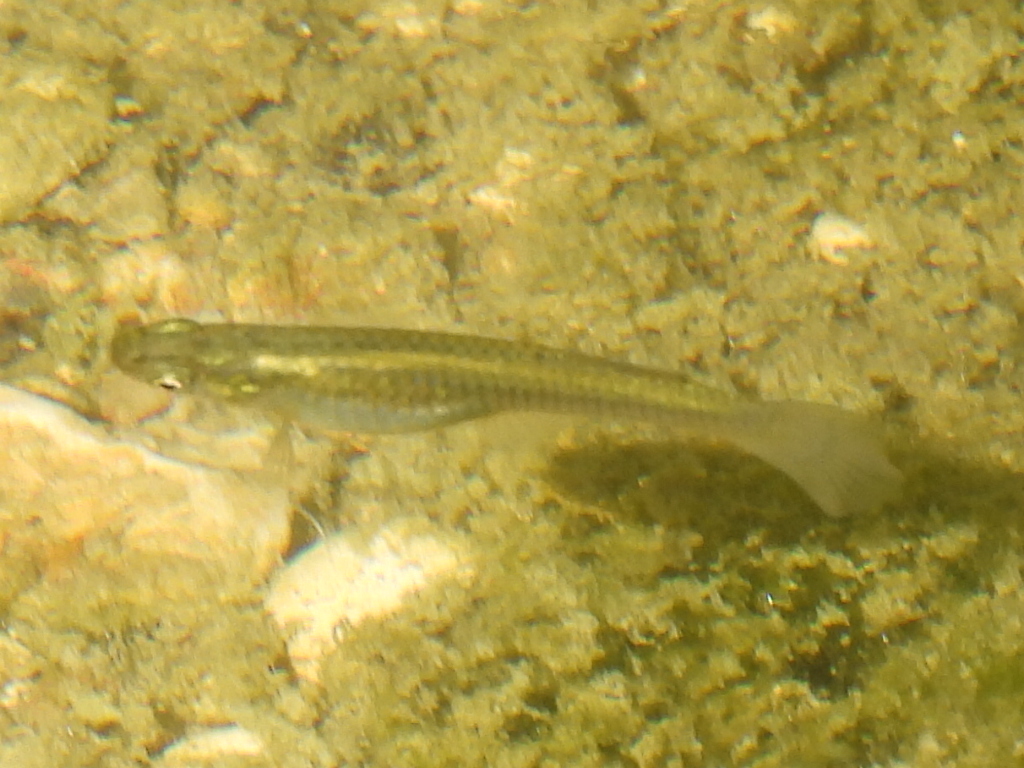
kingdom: Animalia
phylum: Chordata
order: Cyprinodontiformes
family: Poeciliidae
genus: Gambusia
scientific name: Gambusia affinis
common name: Mosquitofish
